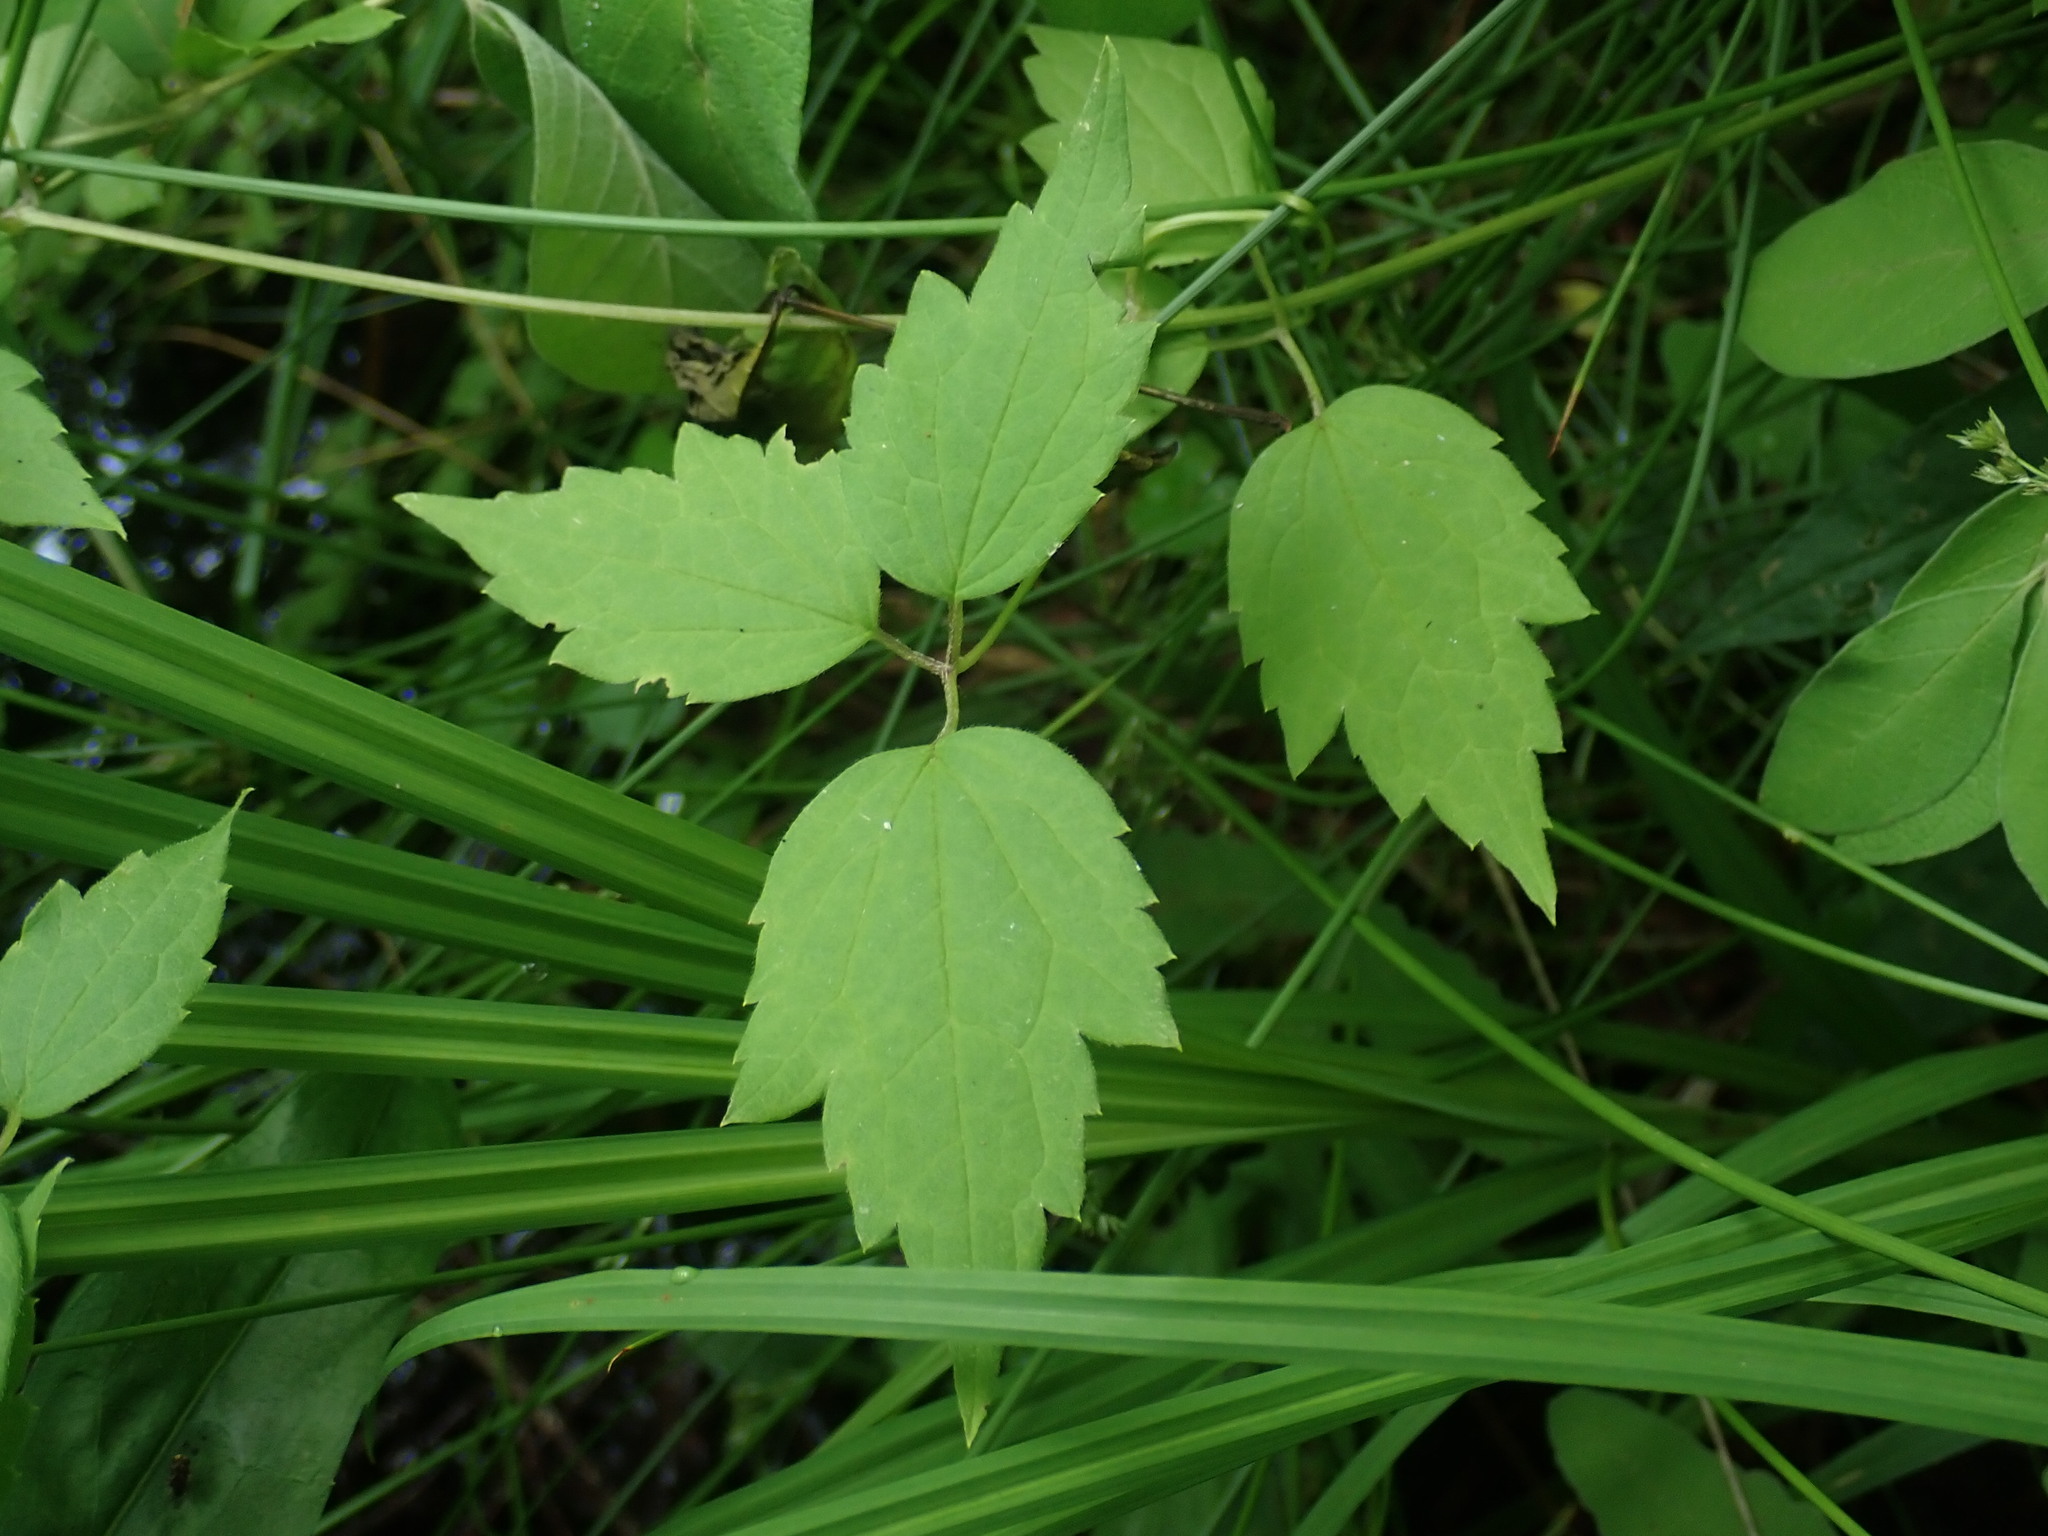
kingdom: Plantae
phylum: Tracheophyta
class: Magnoliopsida
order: Ranunculales
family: Ranunculaceae
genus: Clematis
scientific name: Clematis virginiana
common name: Virgin's-bower
